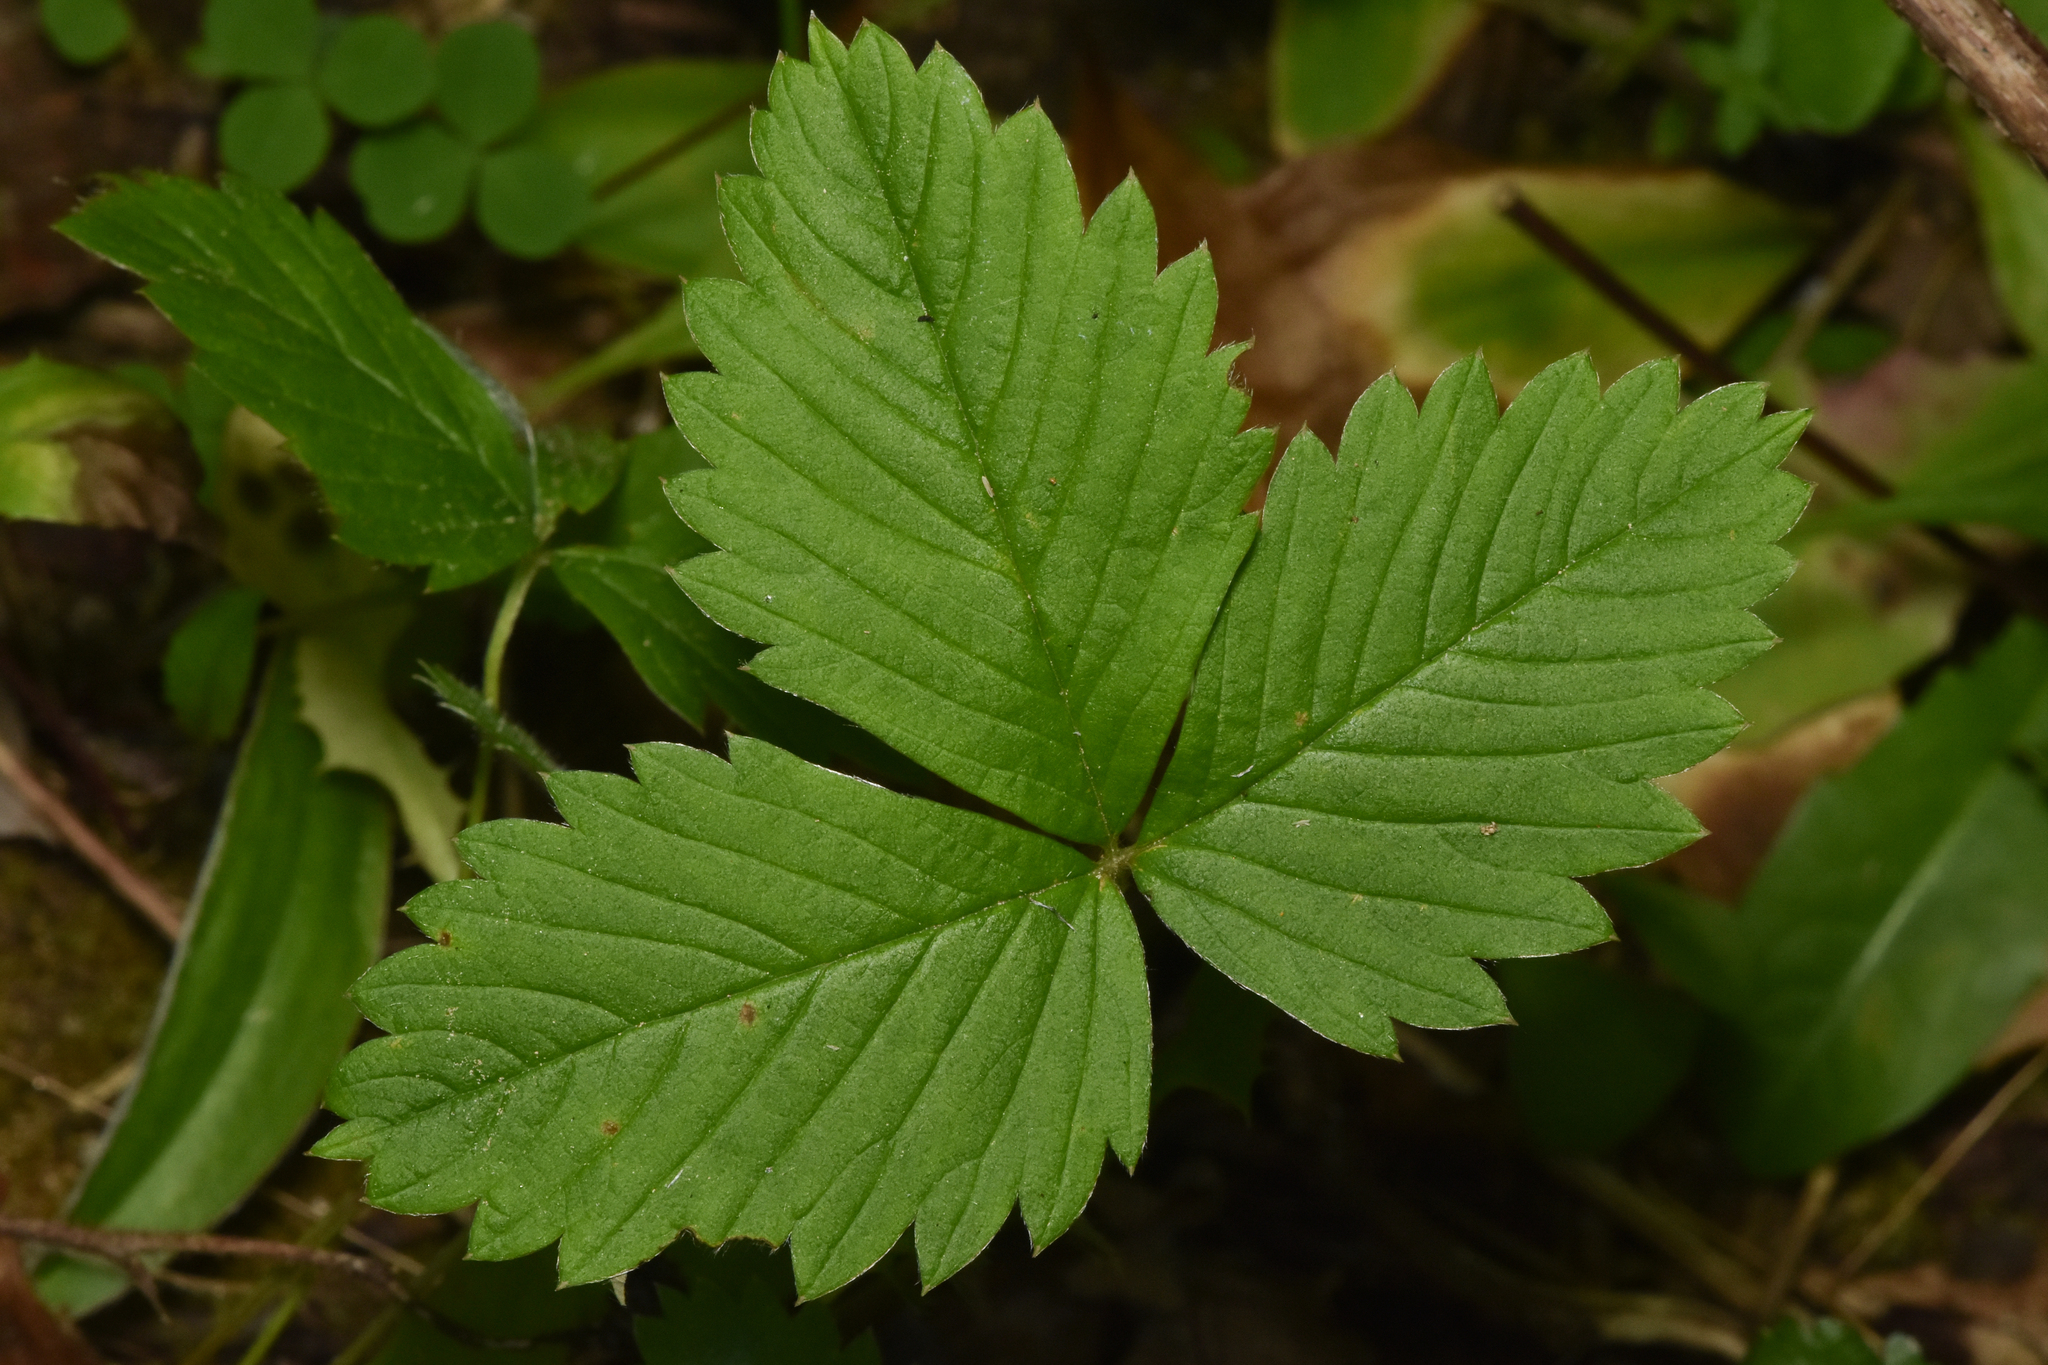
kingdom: Plantae
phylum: Tracheophyta
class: Magnoliopsida
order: Rosales
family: Rosaceae
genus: Fragaria
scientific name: Fragaria vesca
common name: Wild strawberry
